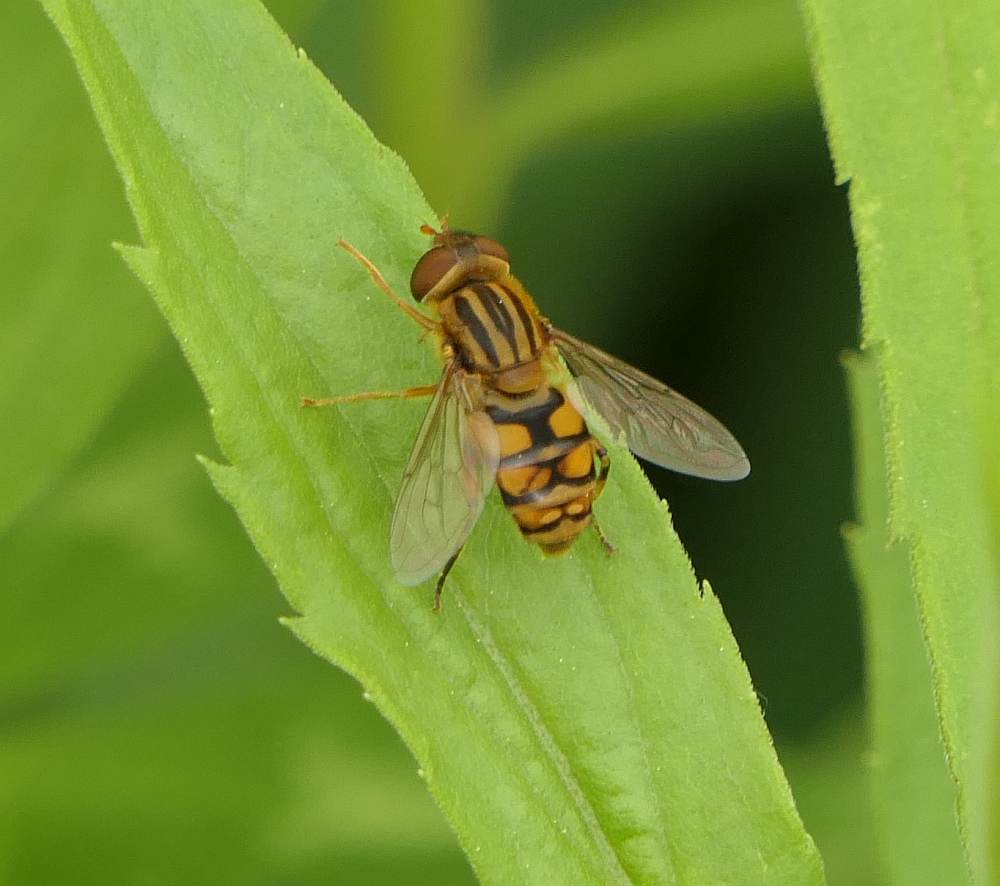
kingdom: Animalia
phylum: Arthropoda
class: Insecta
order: Diptera
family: Syrphidae
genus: Parhelophilus
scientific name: Parhelophilus laetus
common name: Common bog fly
